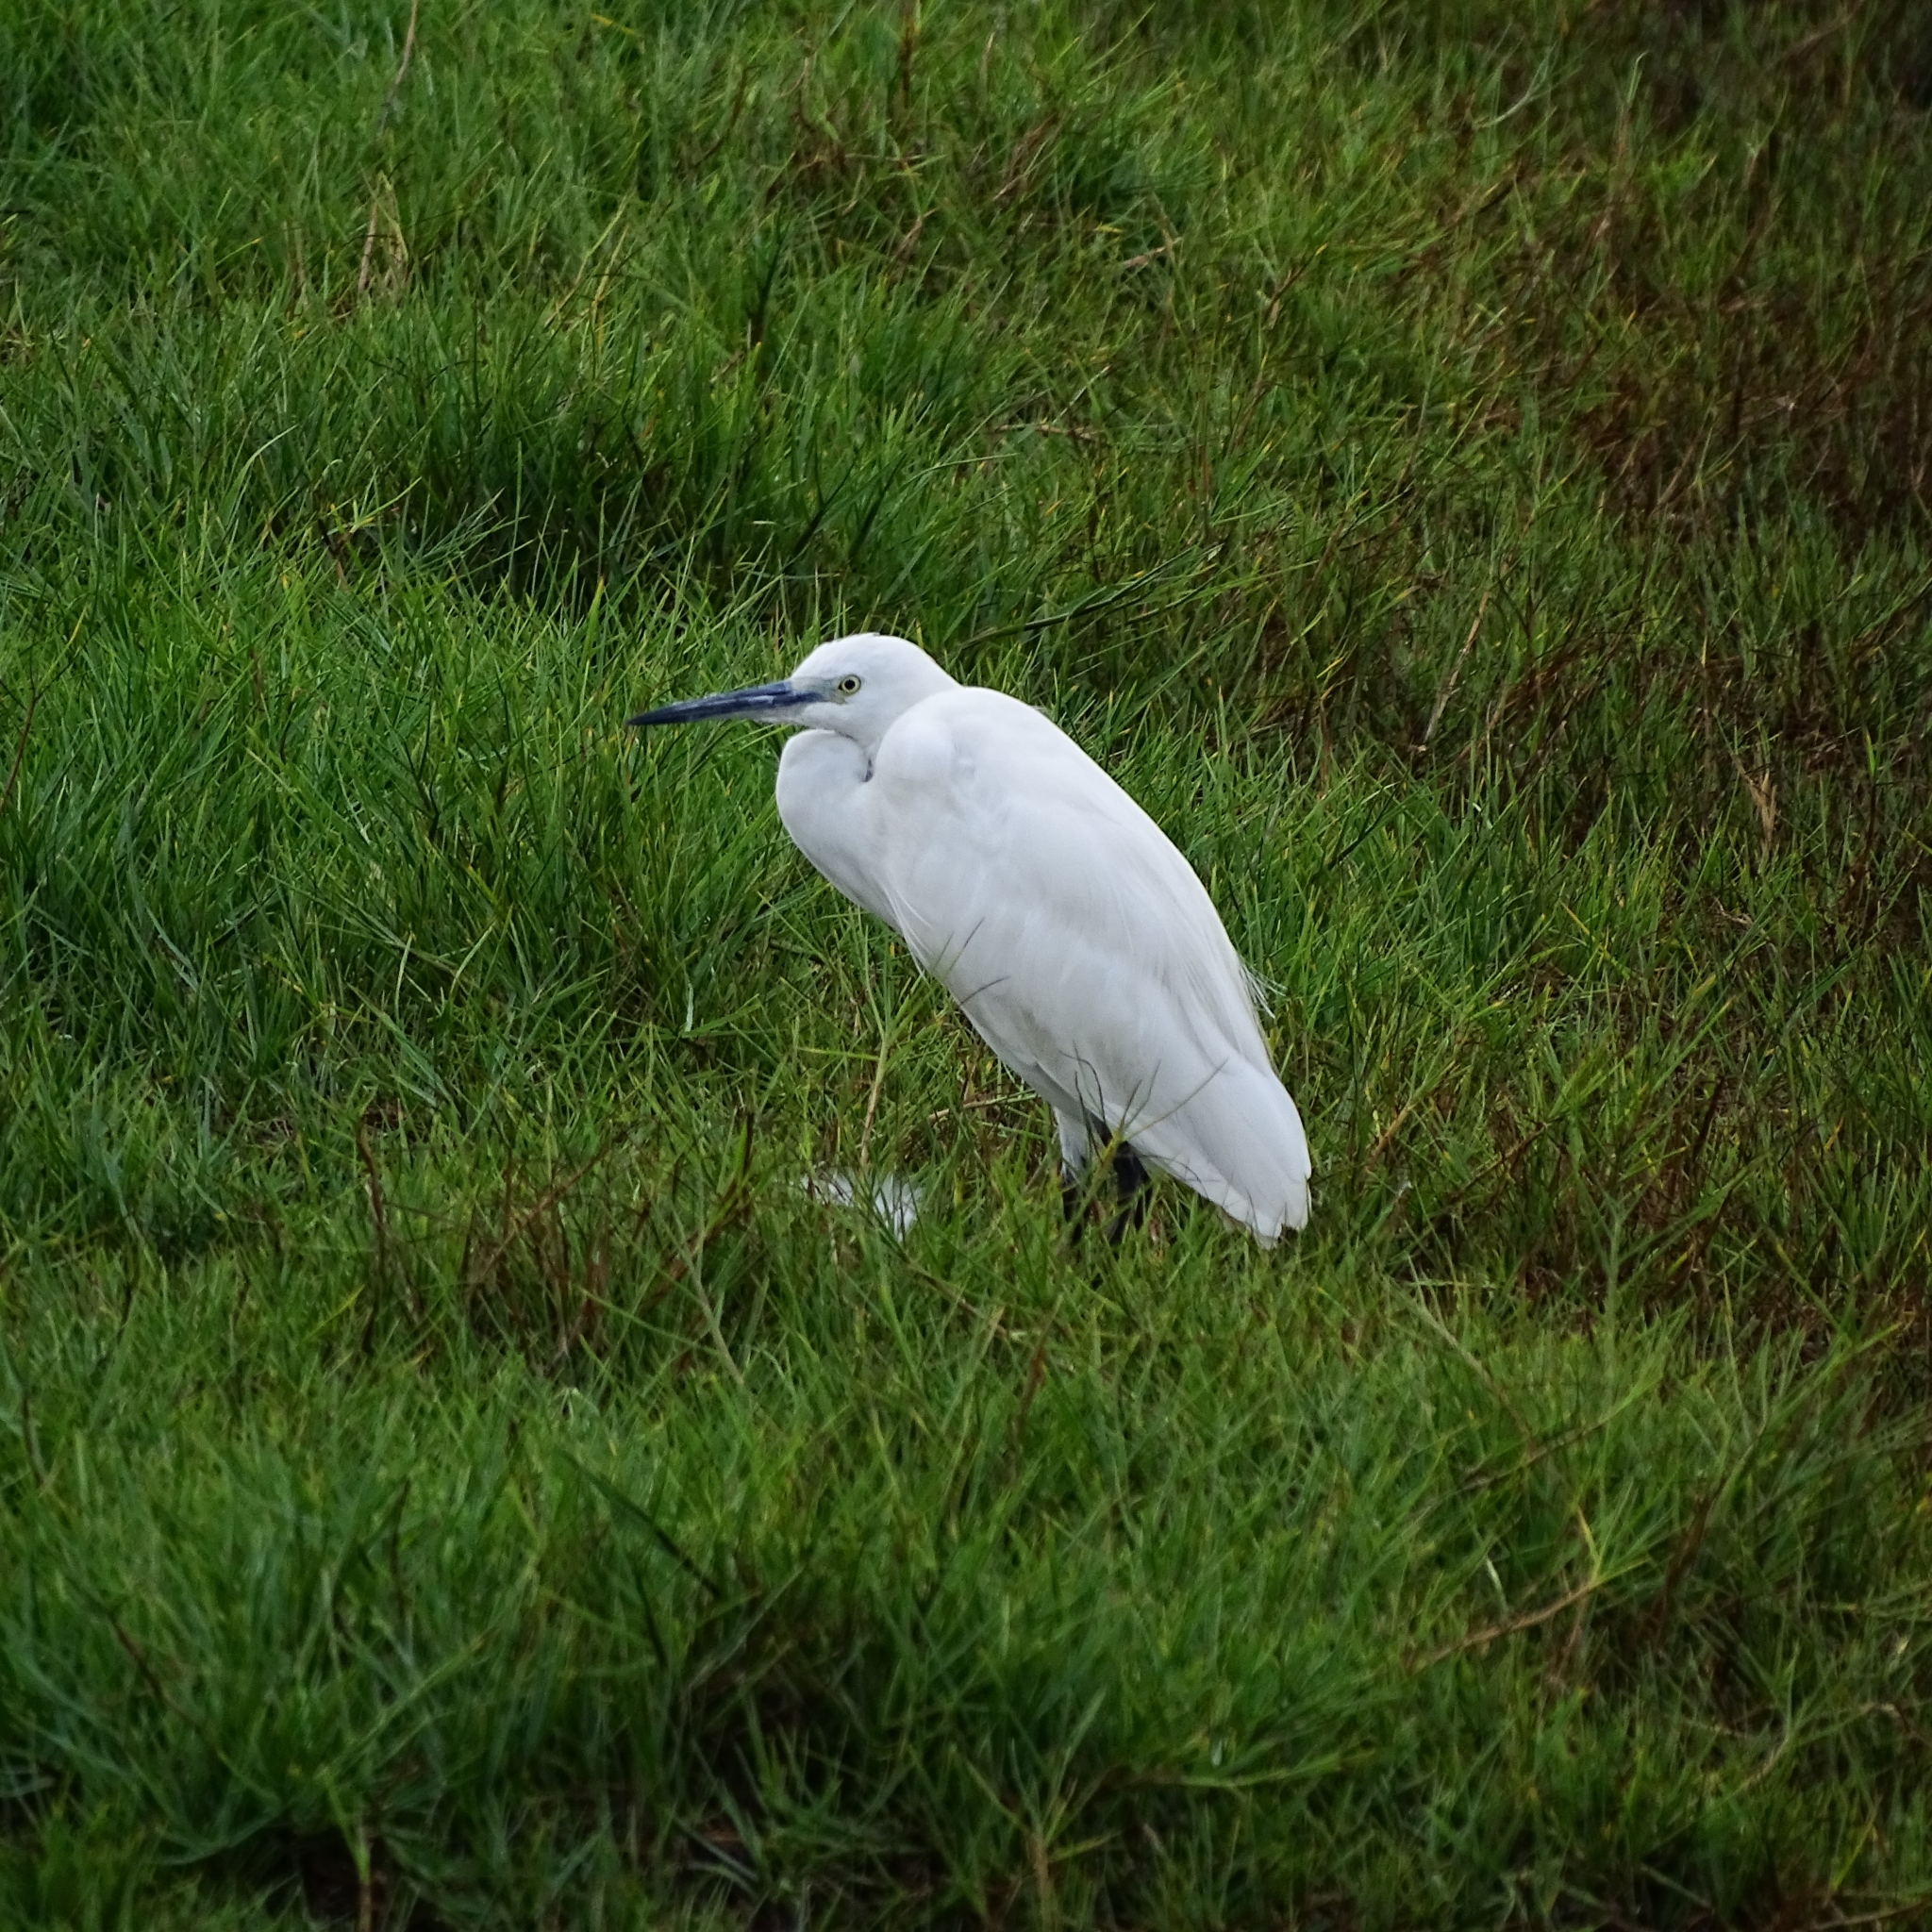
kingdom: Animalia
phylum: Chordata
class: Aves
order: Pelecaniformes
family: Ardeidae
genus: Egretta
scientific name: Egretta garzetta
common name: Little egret
